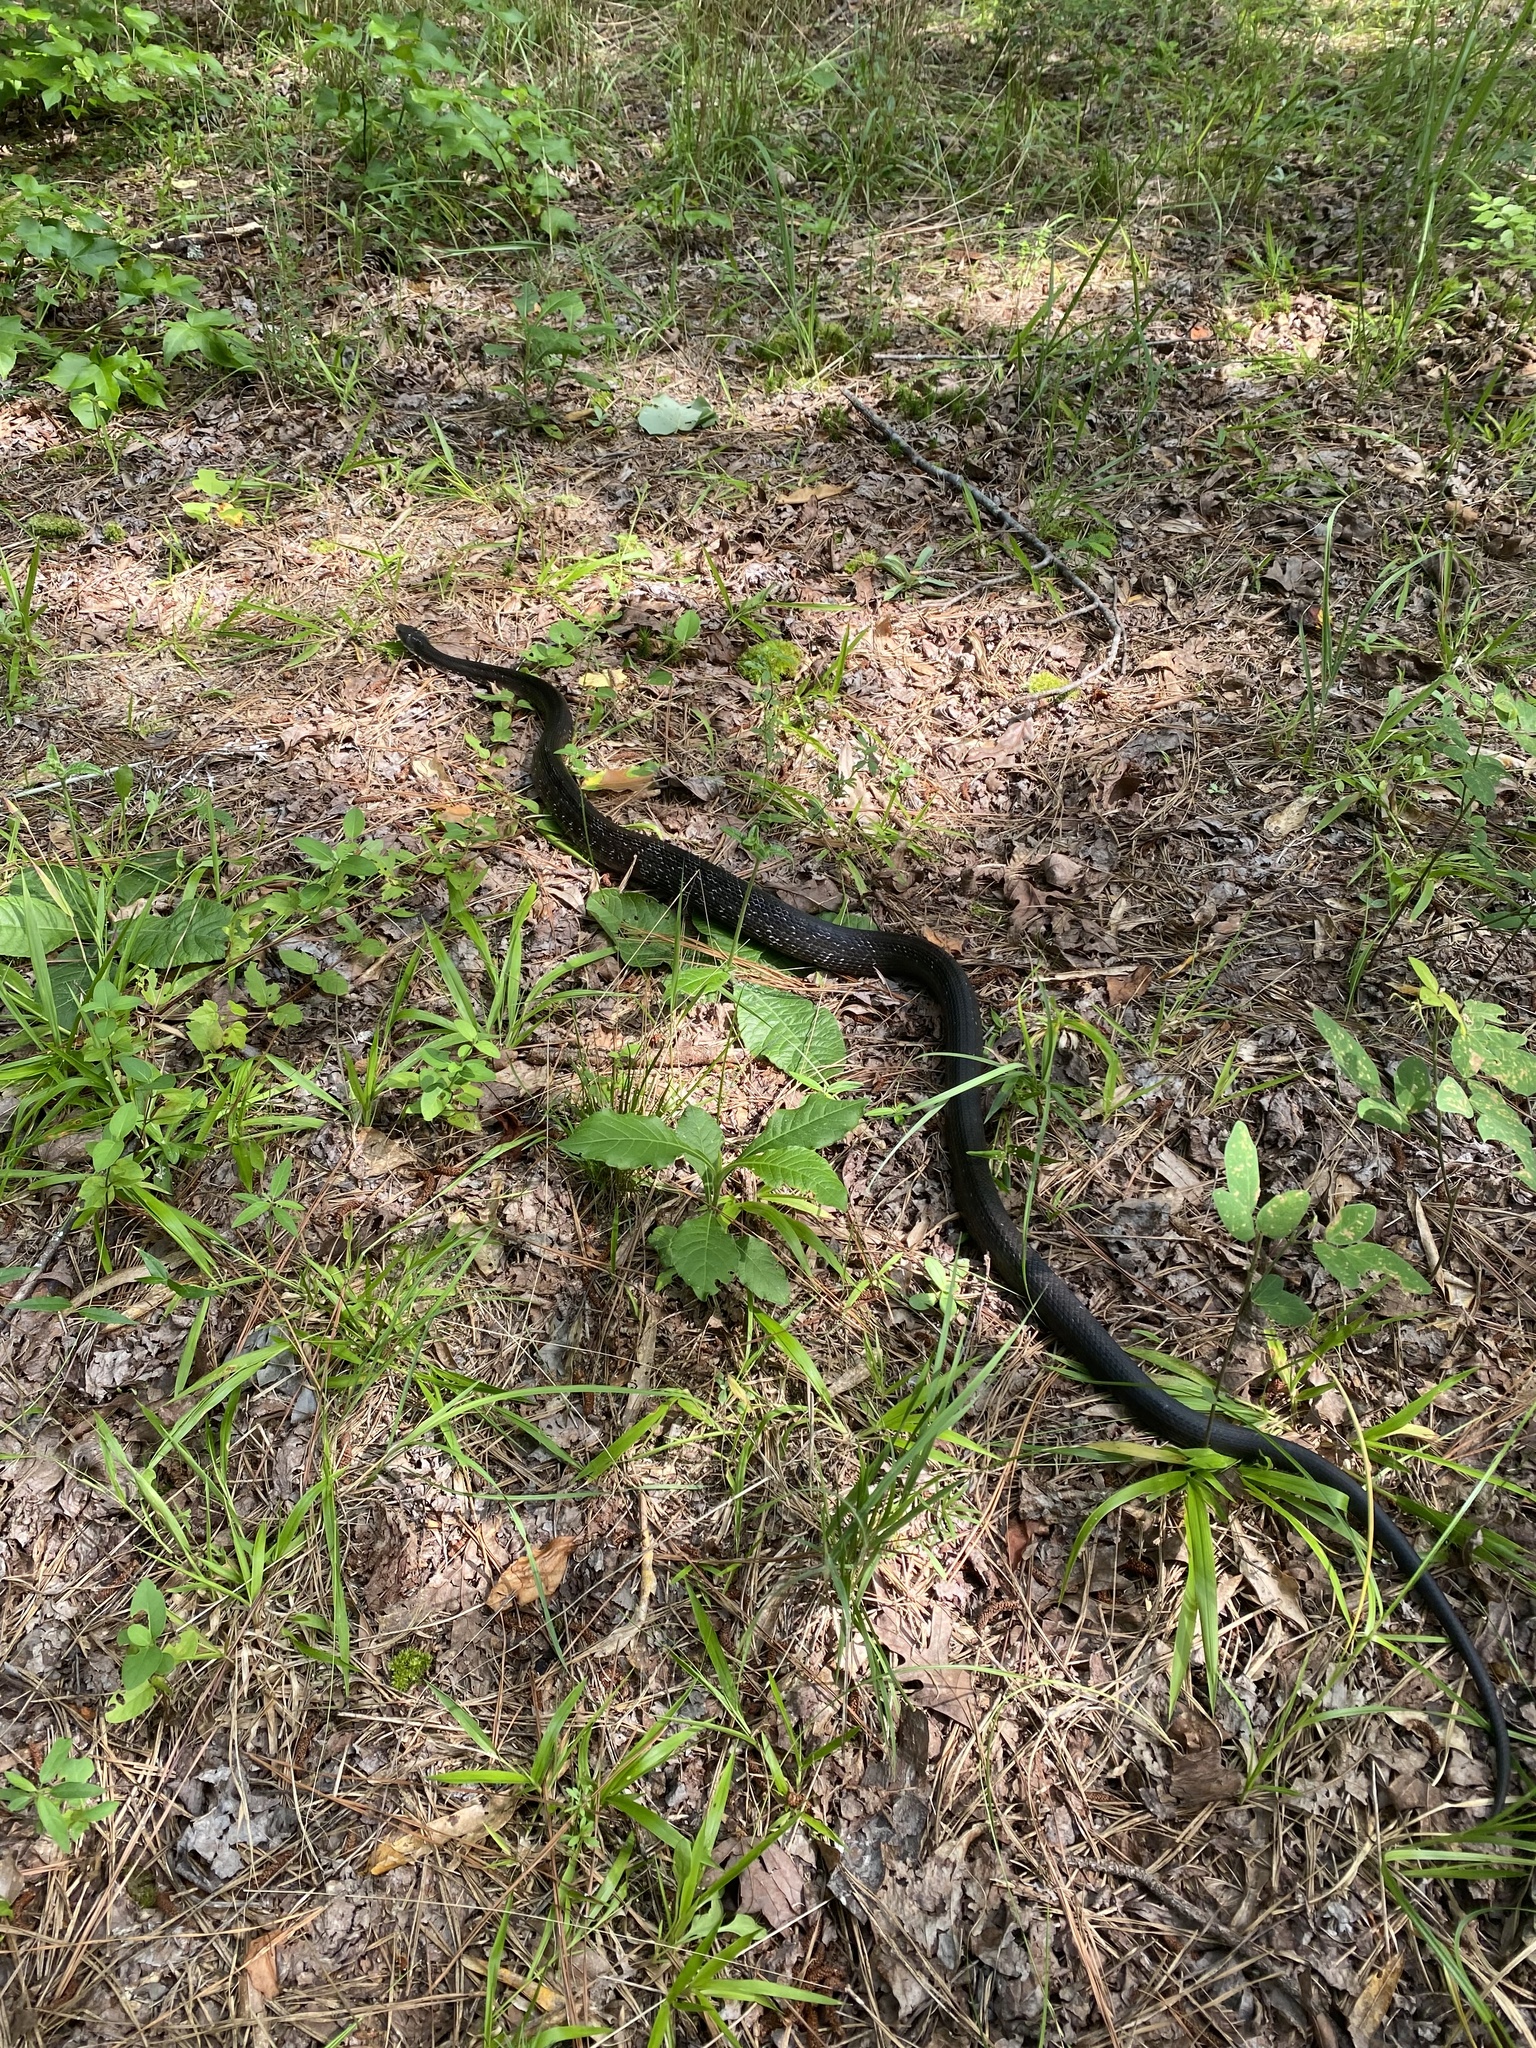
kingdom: Animalia
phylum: Chordata
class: Squamata
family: Colubridae
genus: Pantherophis
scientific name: Pantherophis alleghaniensis
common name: Eastern rat snake
